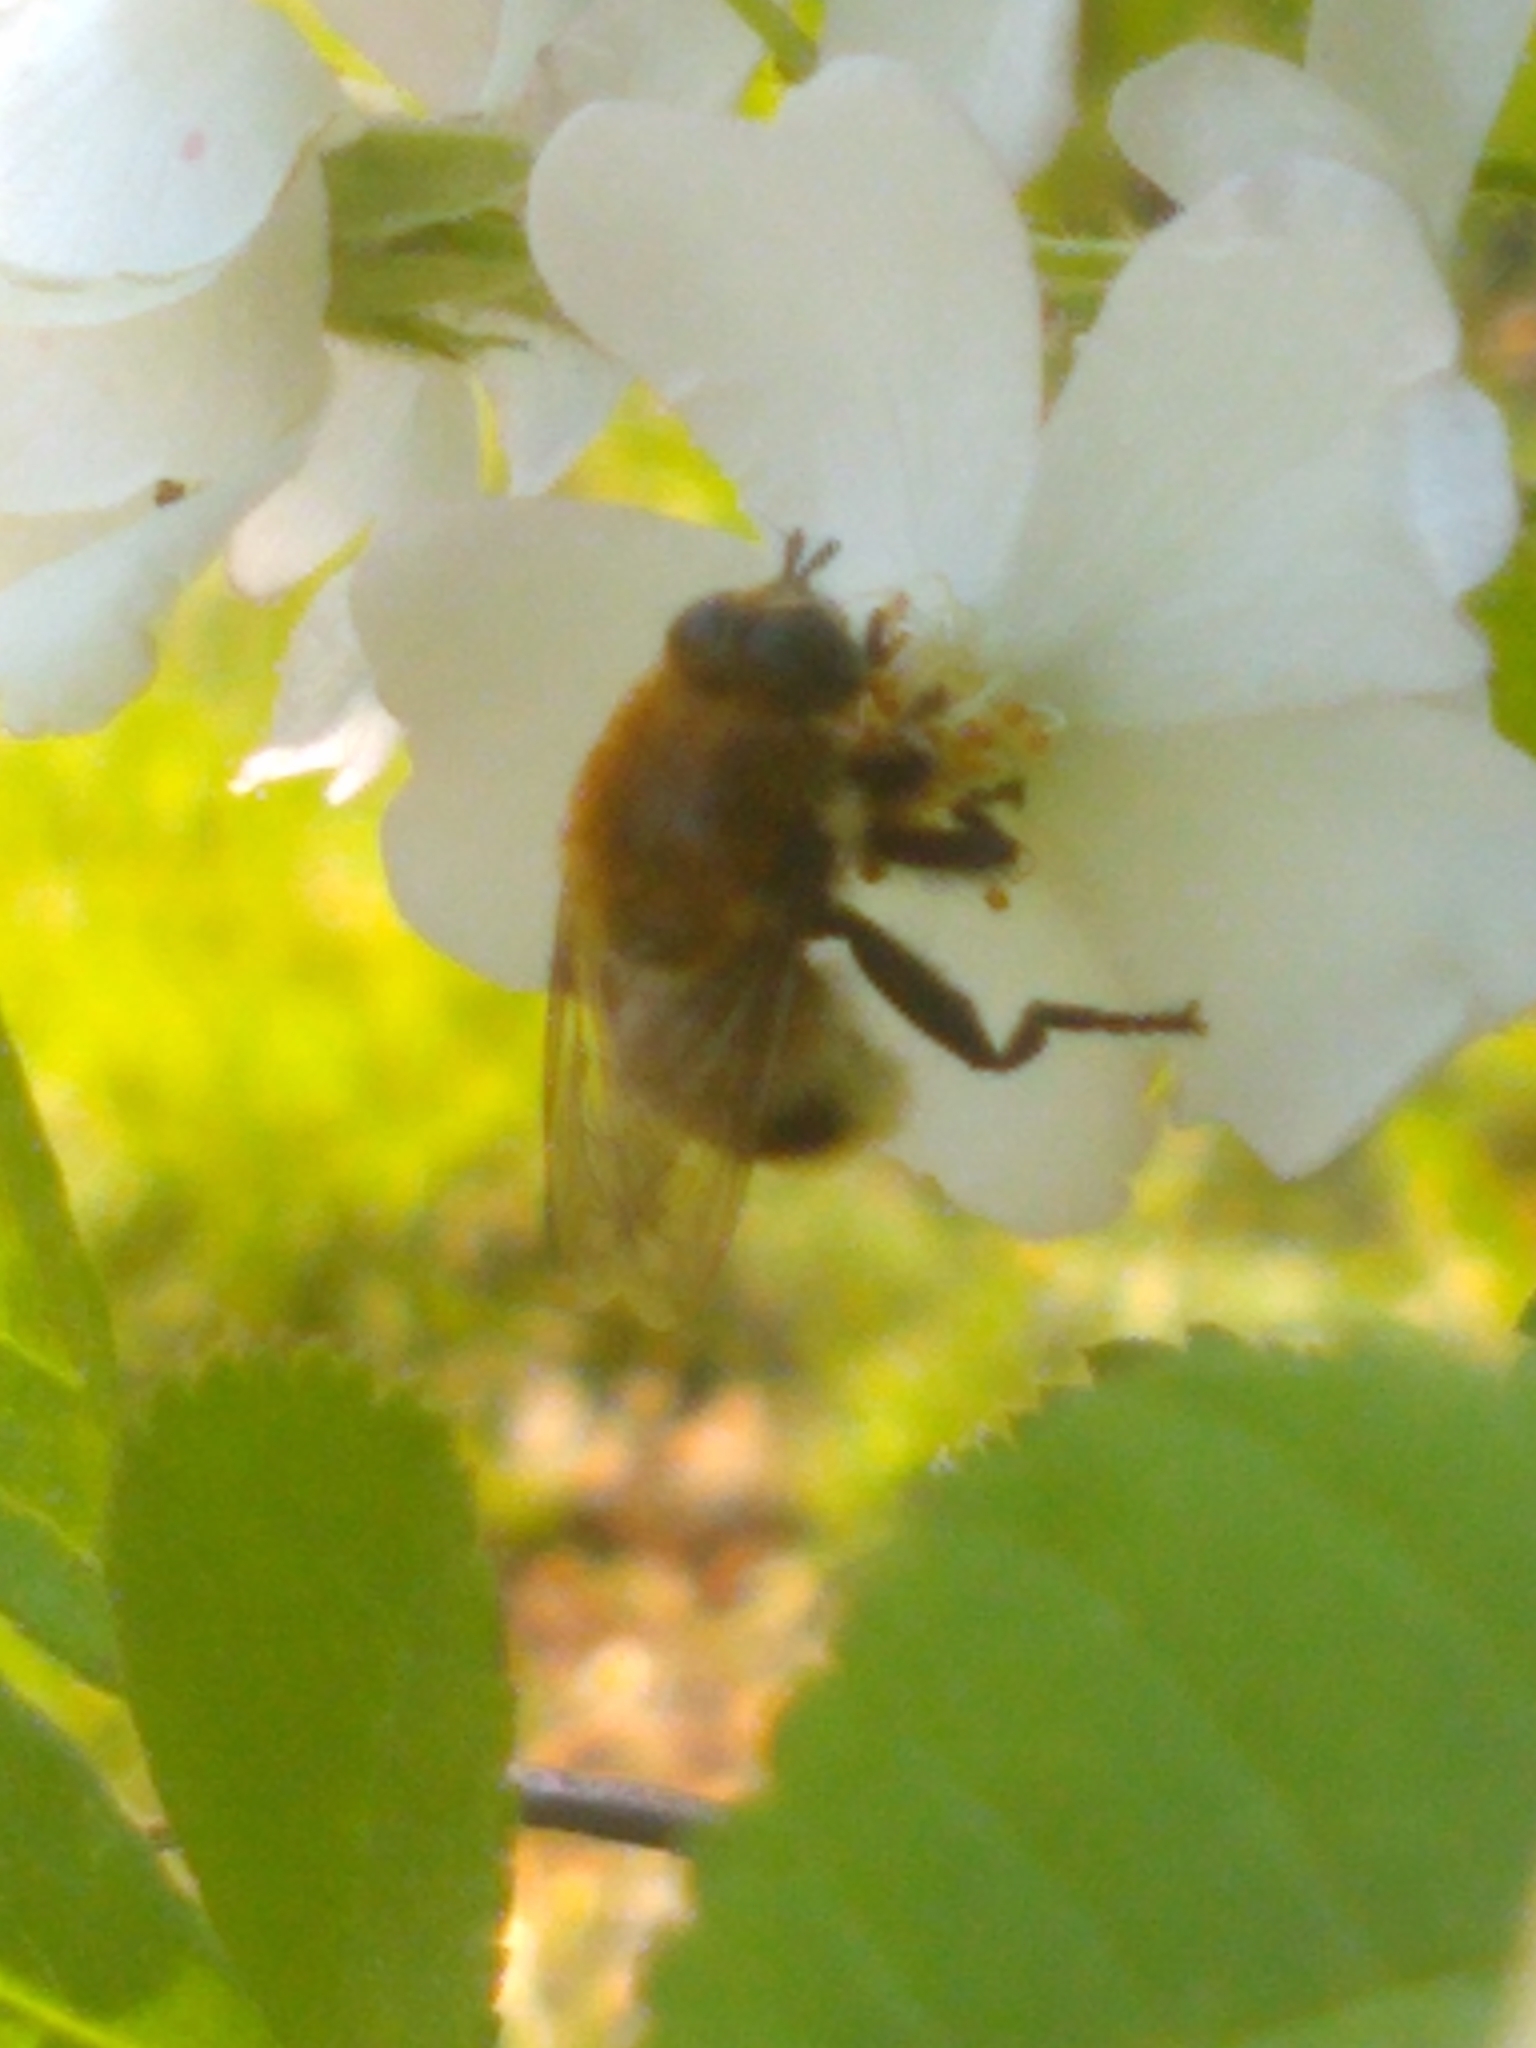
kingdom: Animalia
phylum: Arthropoda
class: Insecta
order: Diptera
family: Syrphidae
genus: Merodon
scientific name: Merodon equestris
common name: Greater bulb-fly
